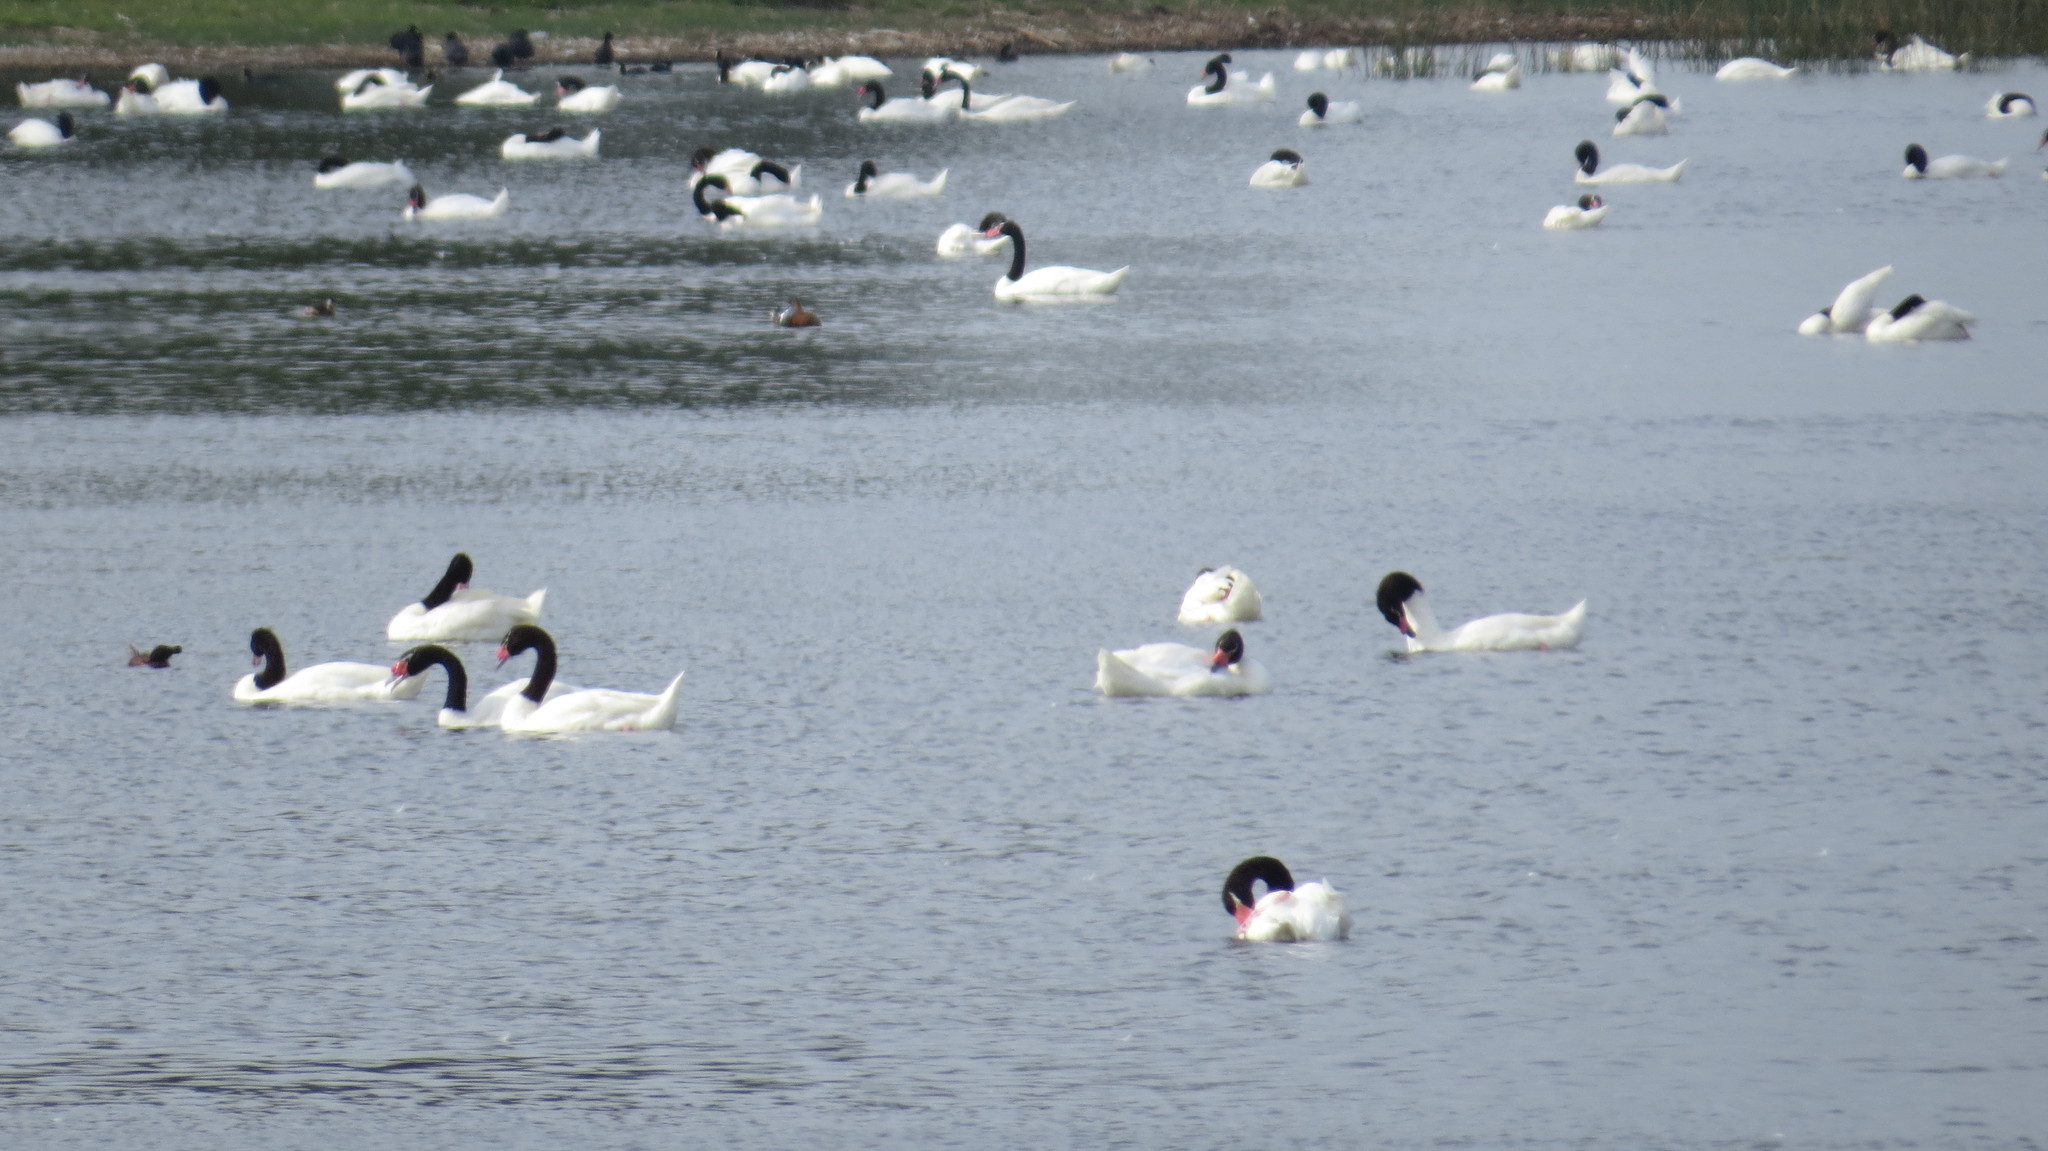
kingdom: Animalia
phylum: Chordata
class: Aves
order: Anseriformes
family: Anatidae
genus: Cygnus
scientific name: Cygnus melancoryphus
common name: Black-necked swan
